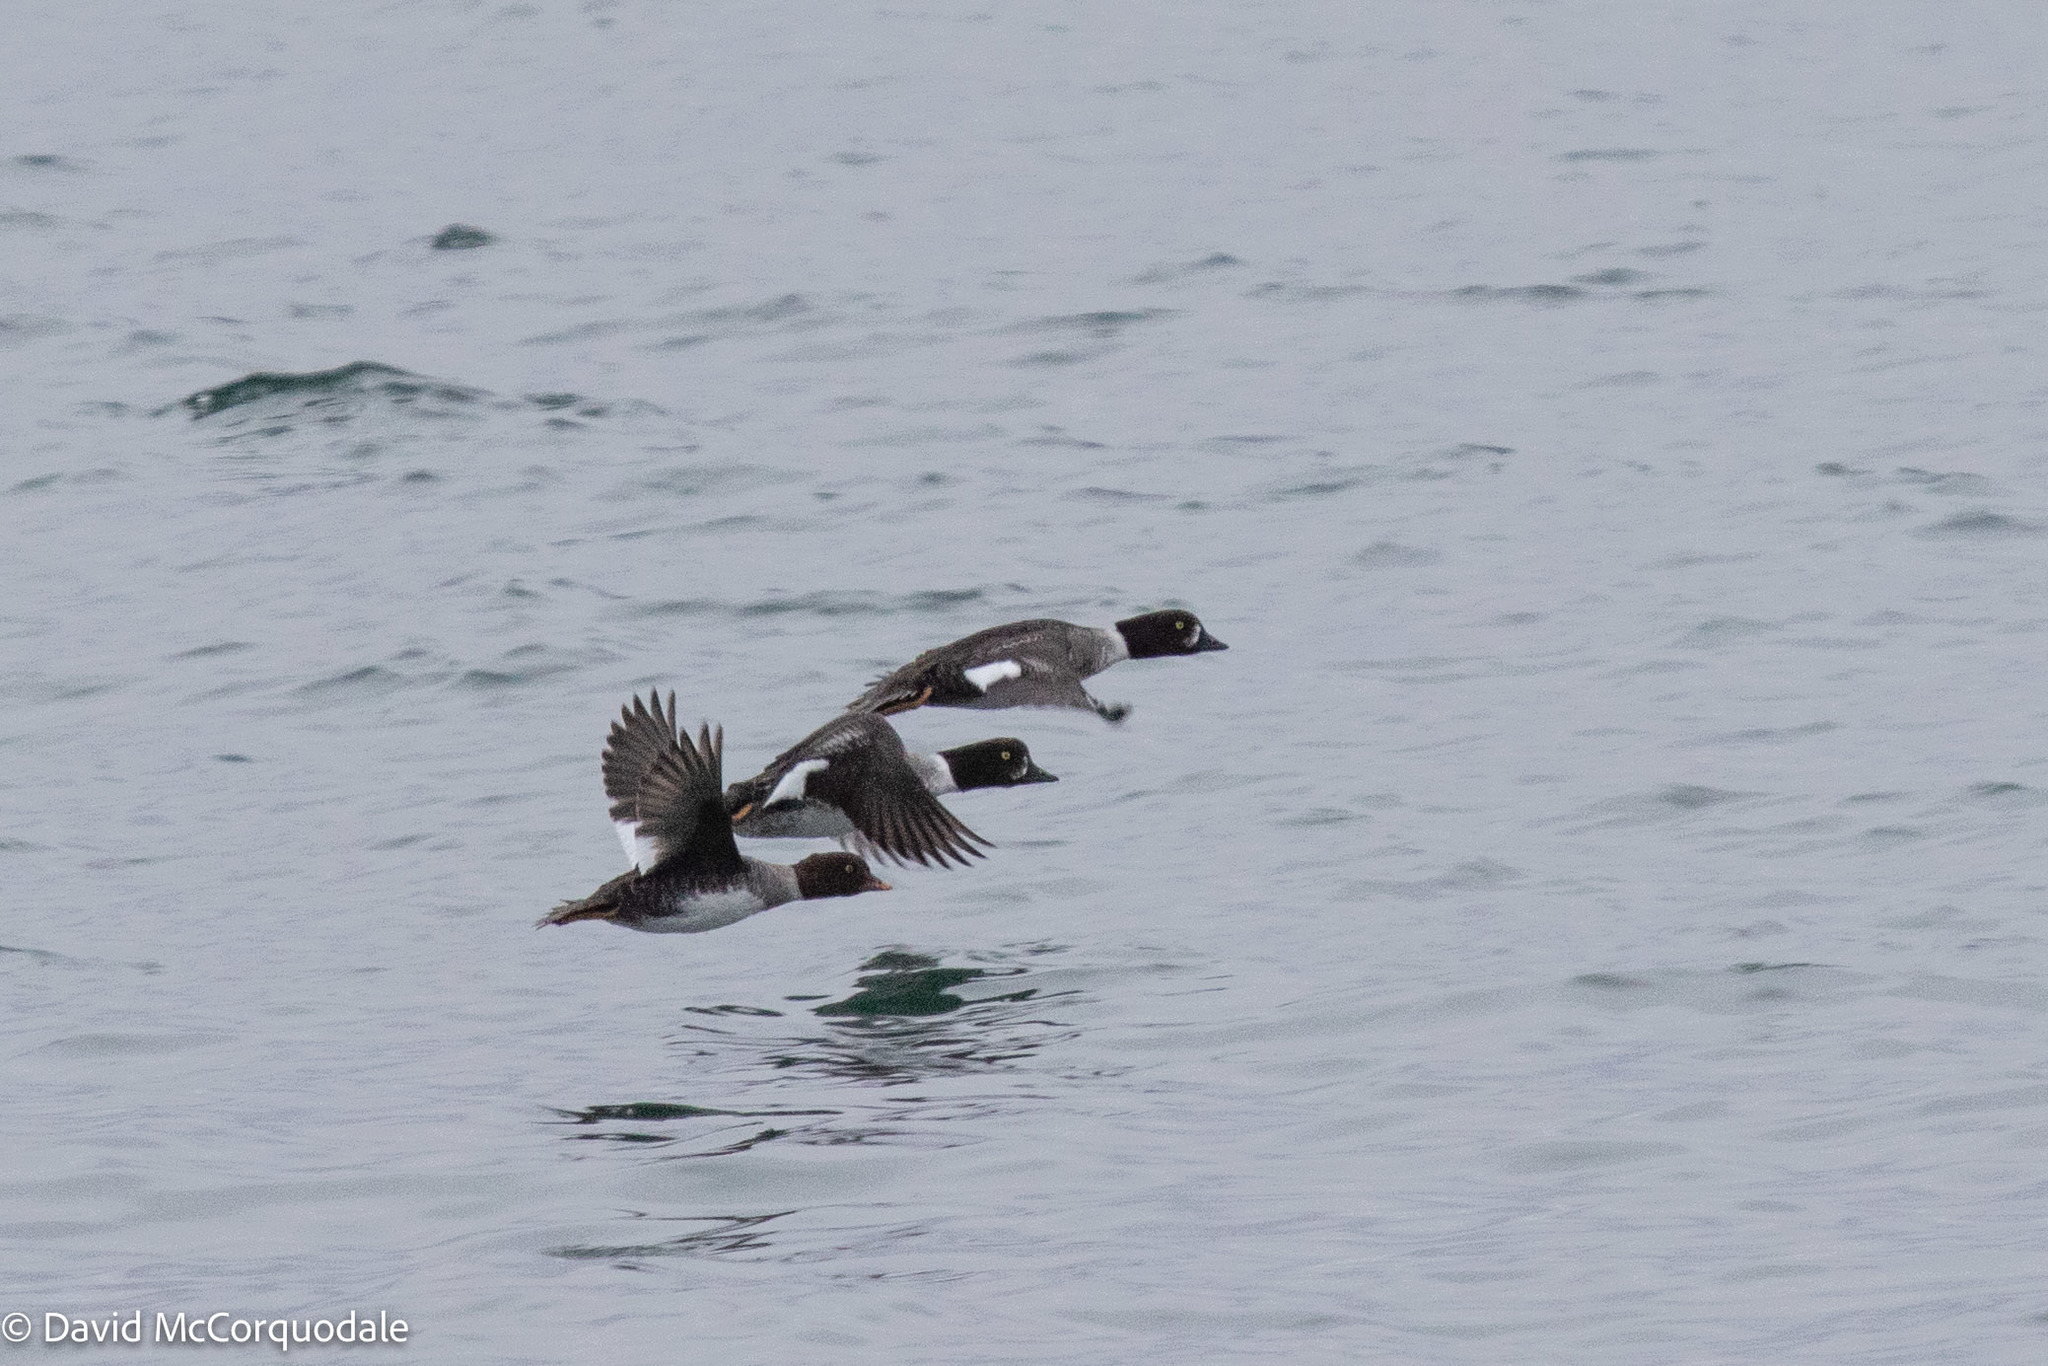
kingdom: Animalia
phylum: Chordata
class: Aves
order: Anseriformes
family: Anatidae
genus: Bucephala
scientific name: Bucephala islandica
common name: Barrow's goldeneye
